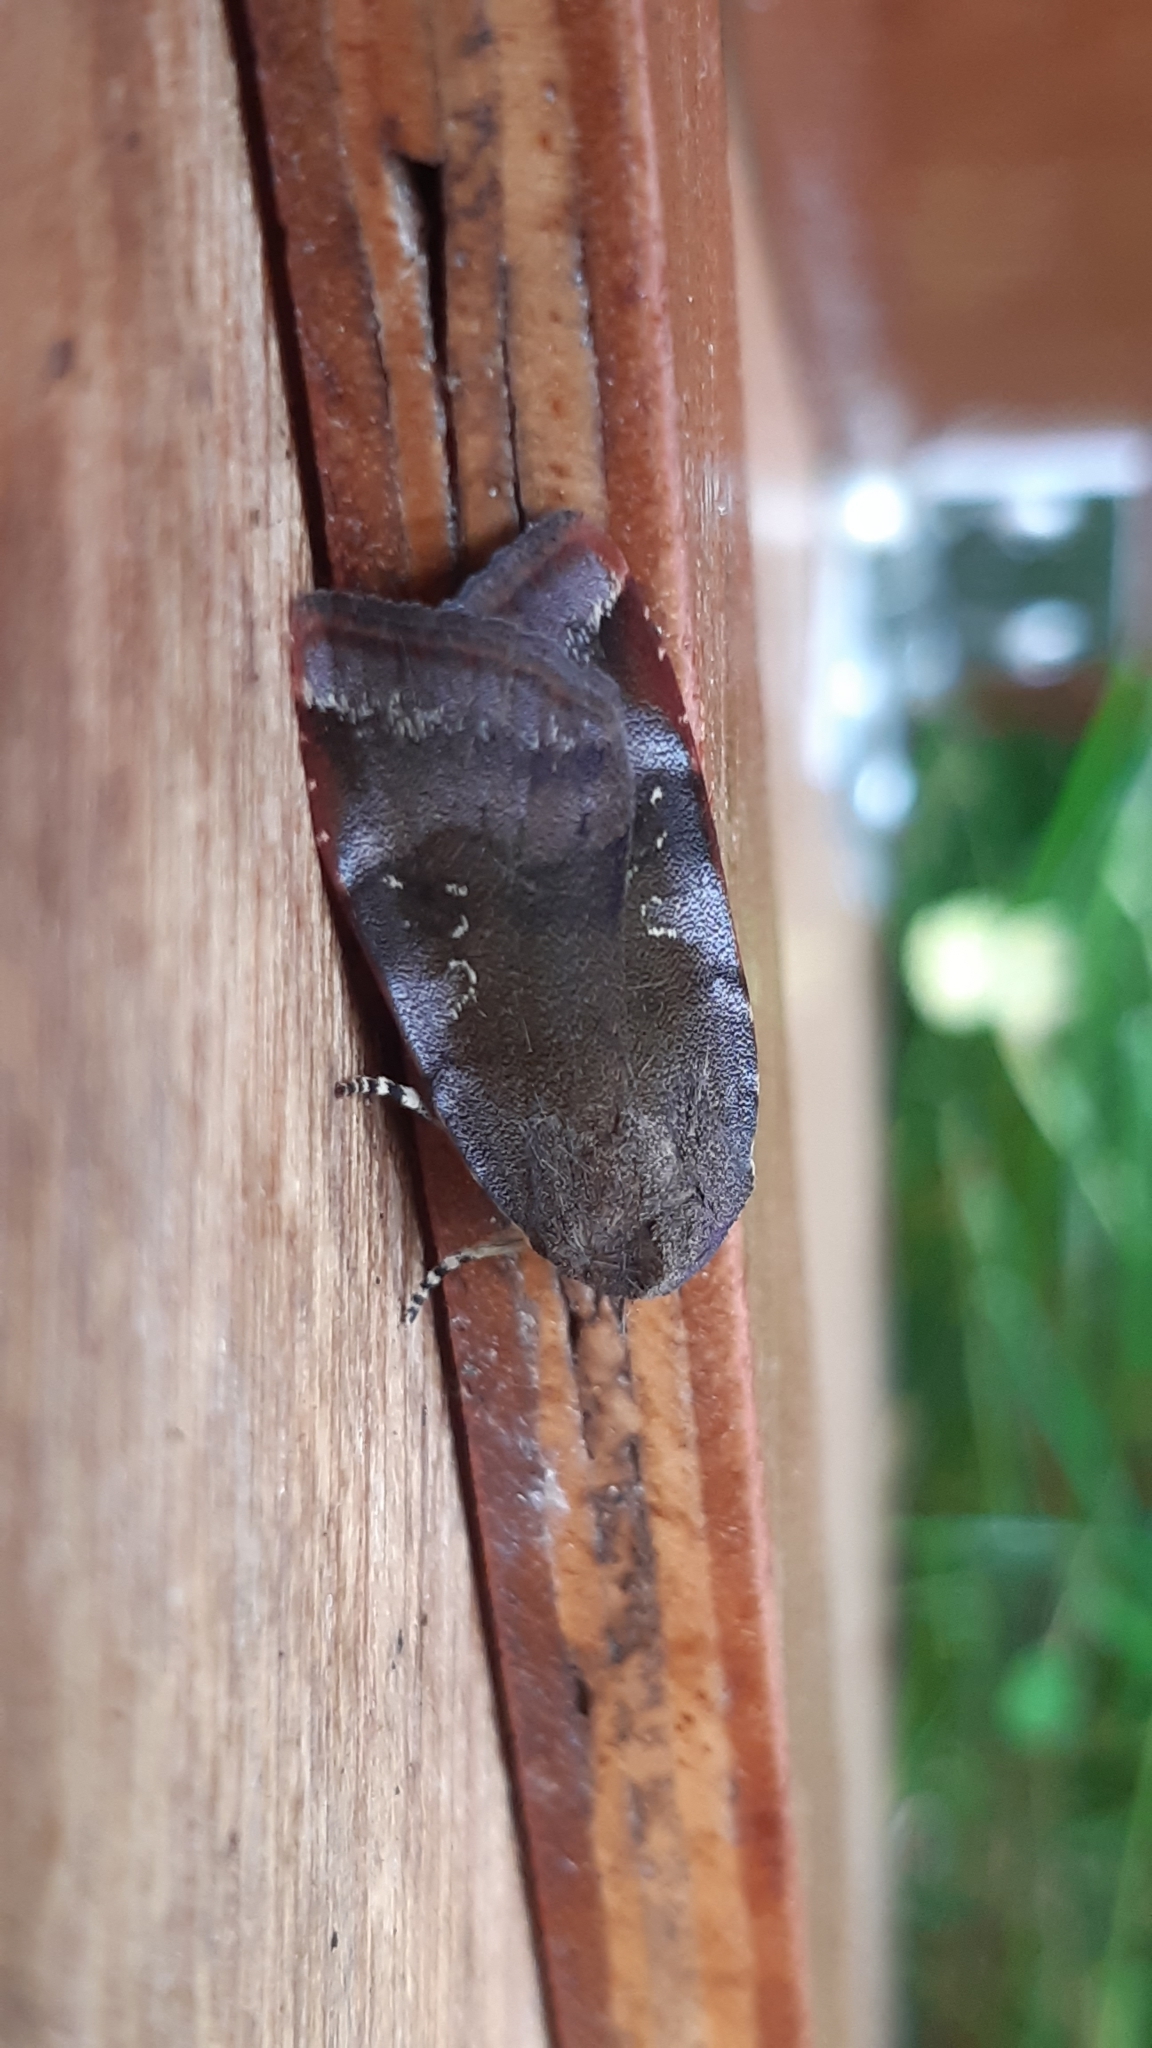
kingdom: Animalia
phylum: Arthropoda
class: Insecta
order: Lepidoptera
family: Noctuidae
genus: Noctua
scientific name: Noctua janthe
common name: Lesser broad-bordered yellow underwing
